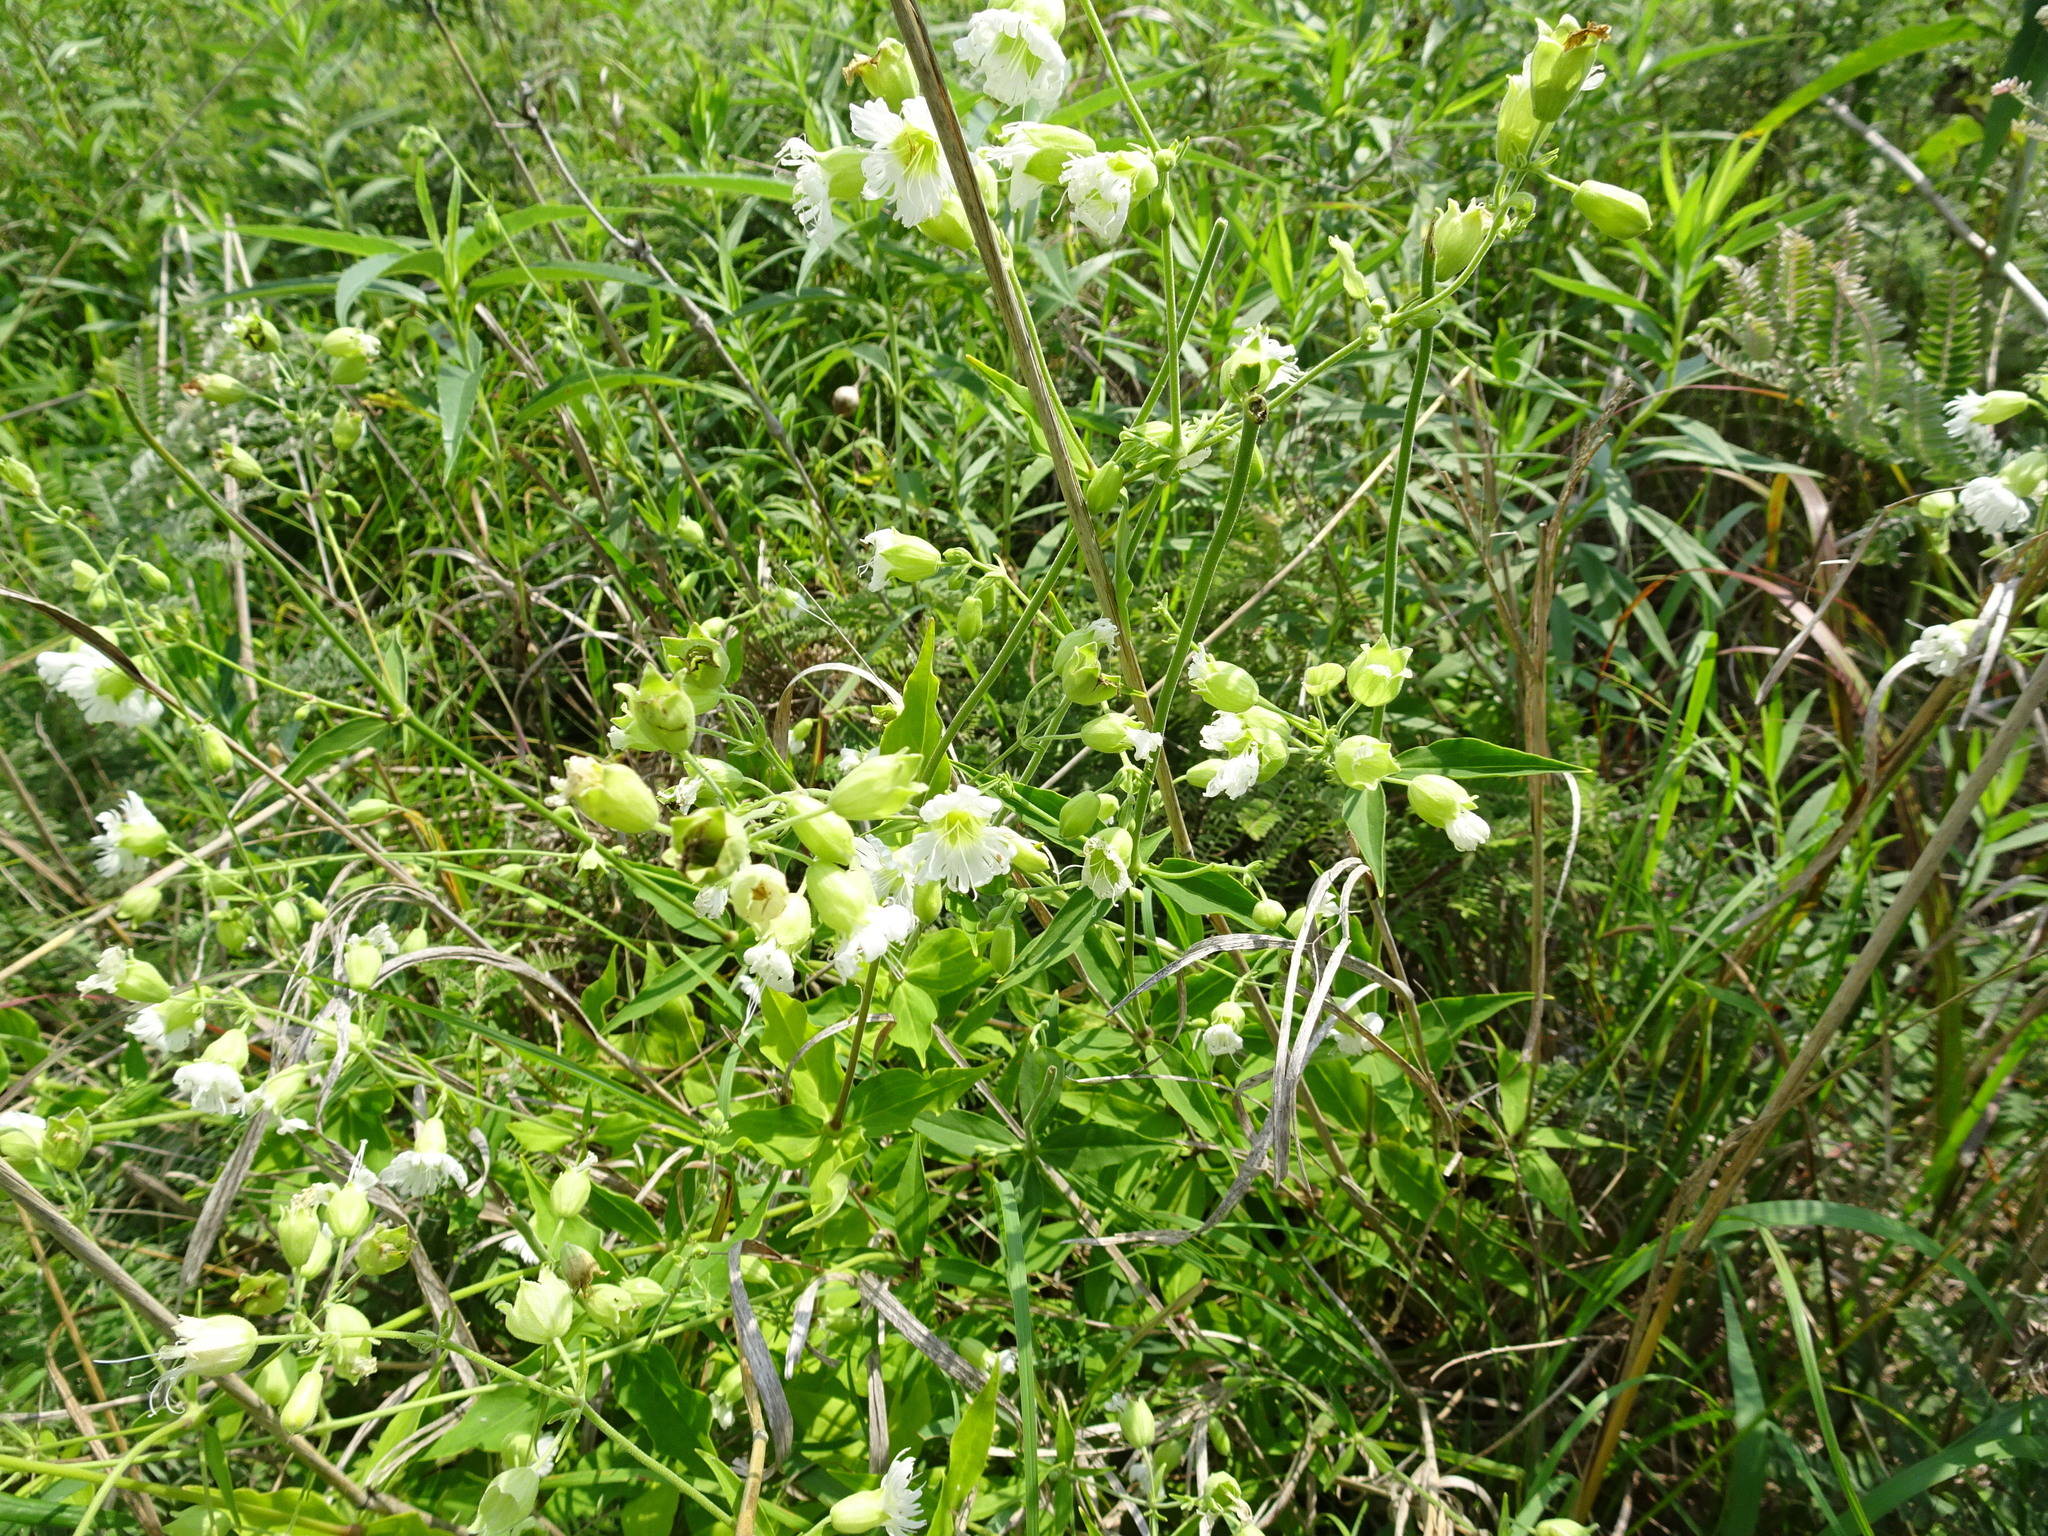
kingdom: Plantae
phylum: Tracheophyta
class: Magnoliopsida
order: Caryophyllales
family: Caryophyllaceae
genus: Silene
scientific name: Silene stellata
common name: Starry campion
